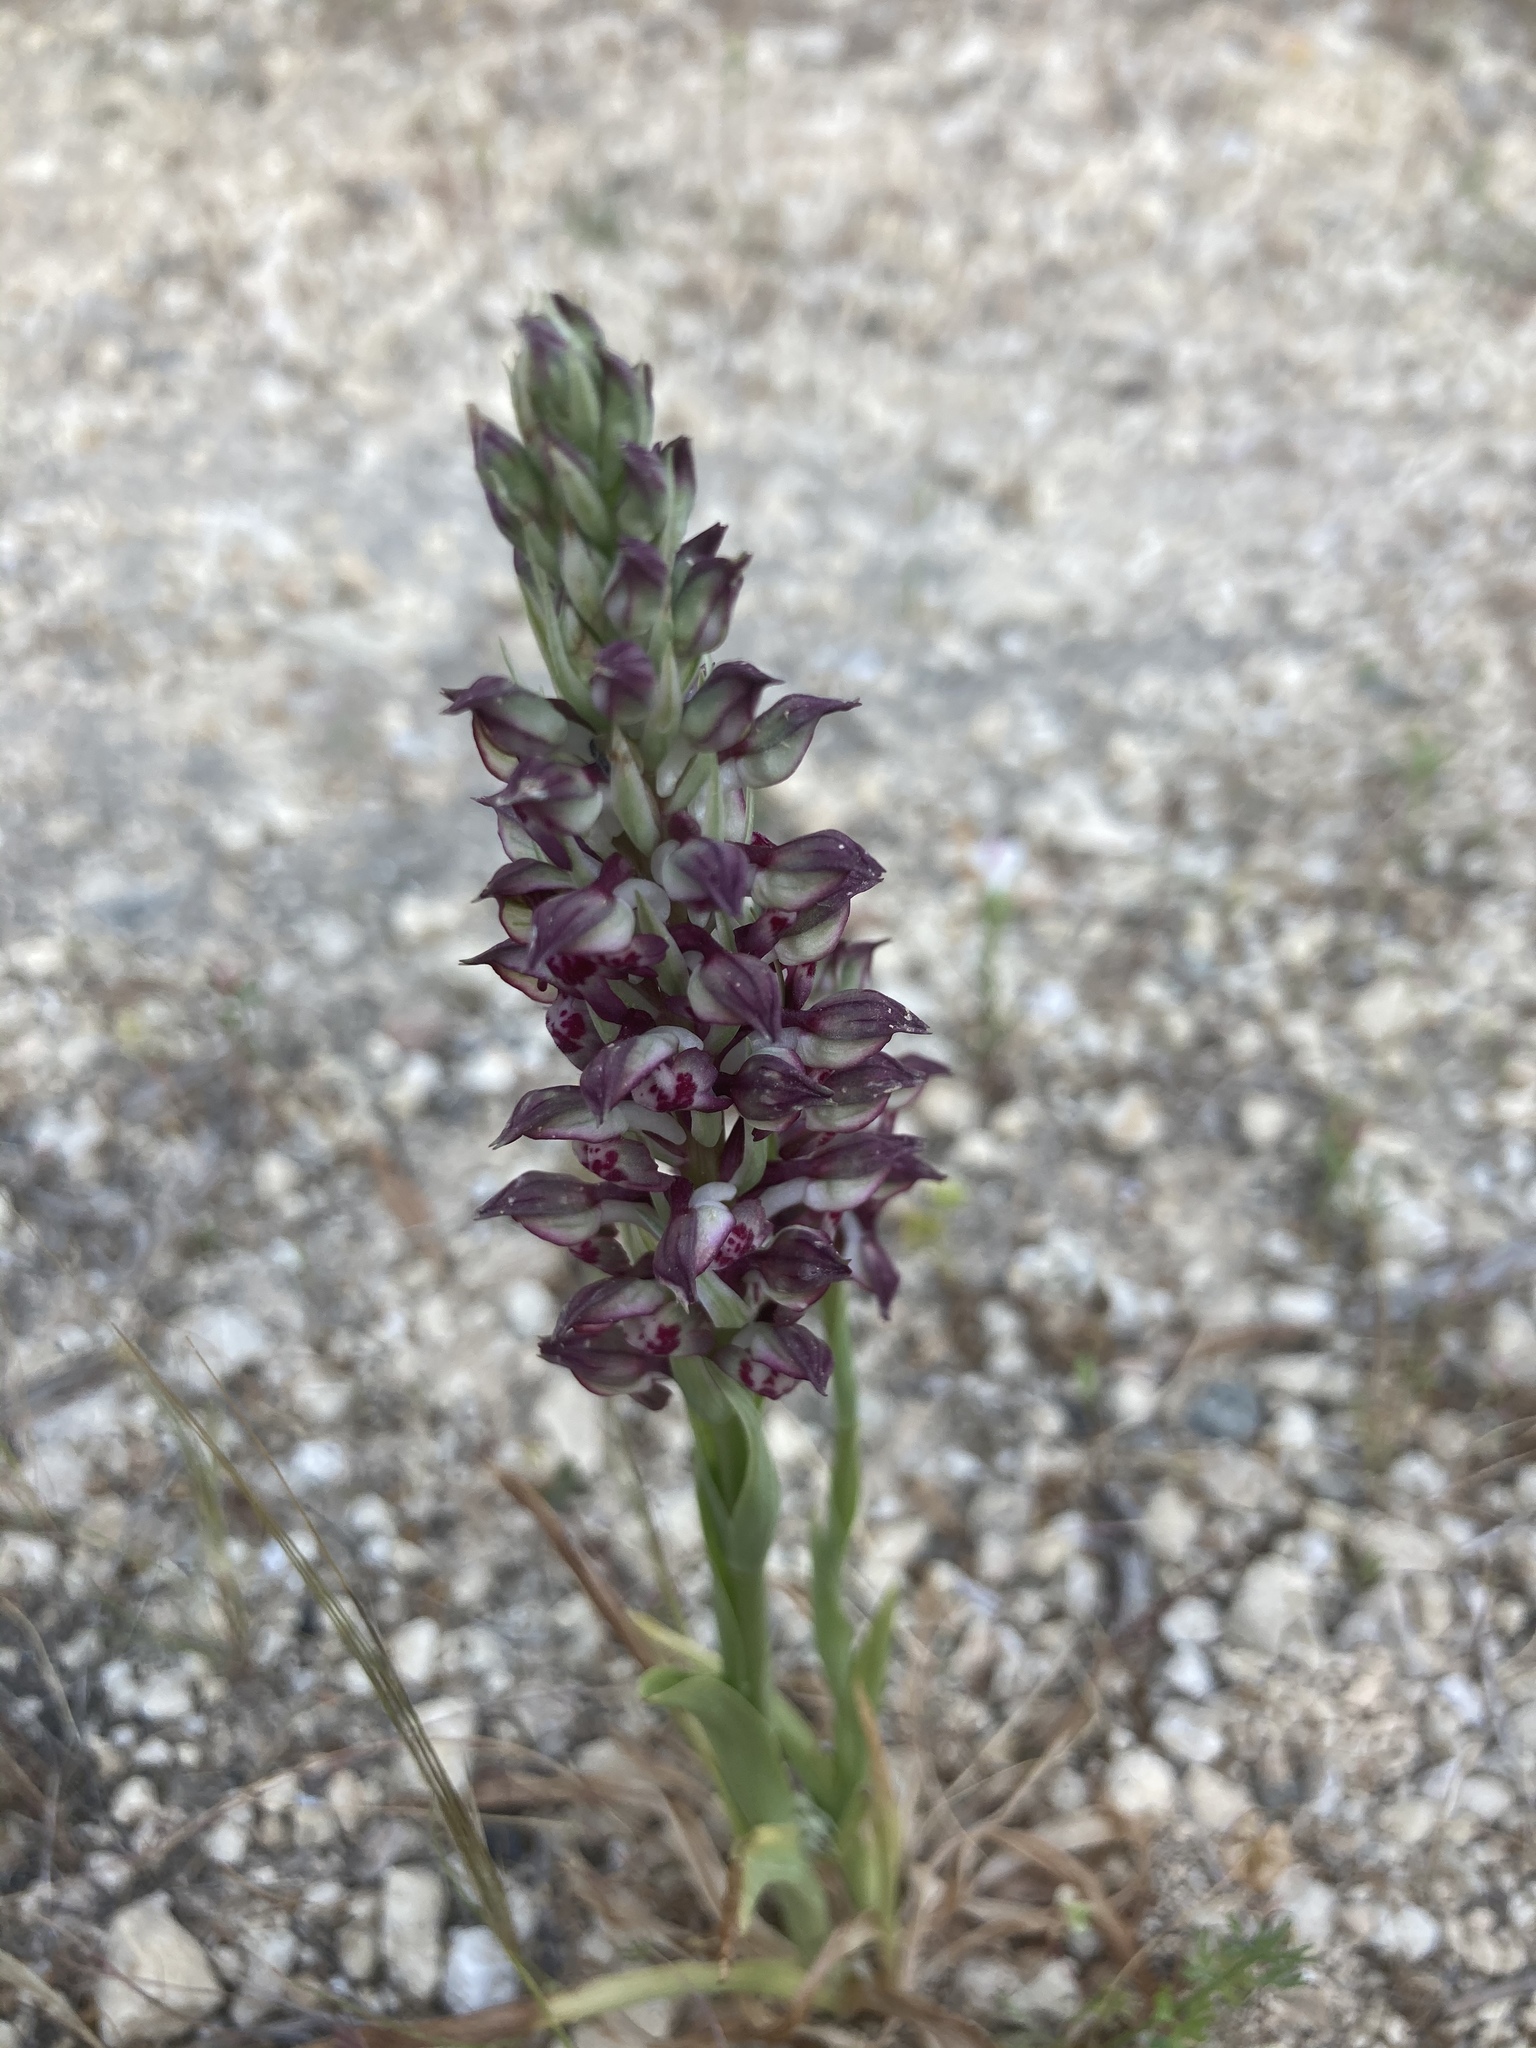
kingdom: Plantae
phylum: Tracheophyta
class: Liliopsida
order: Asparagales
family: Orchidaceae
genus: Anacamptis
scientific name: Anacamptis coriophora
